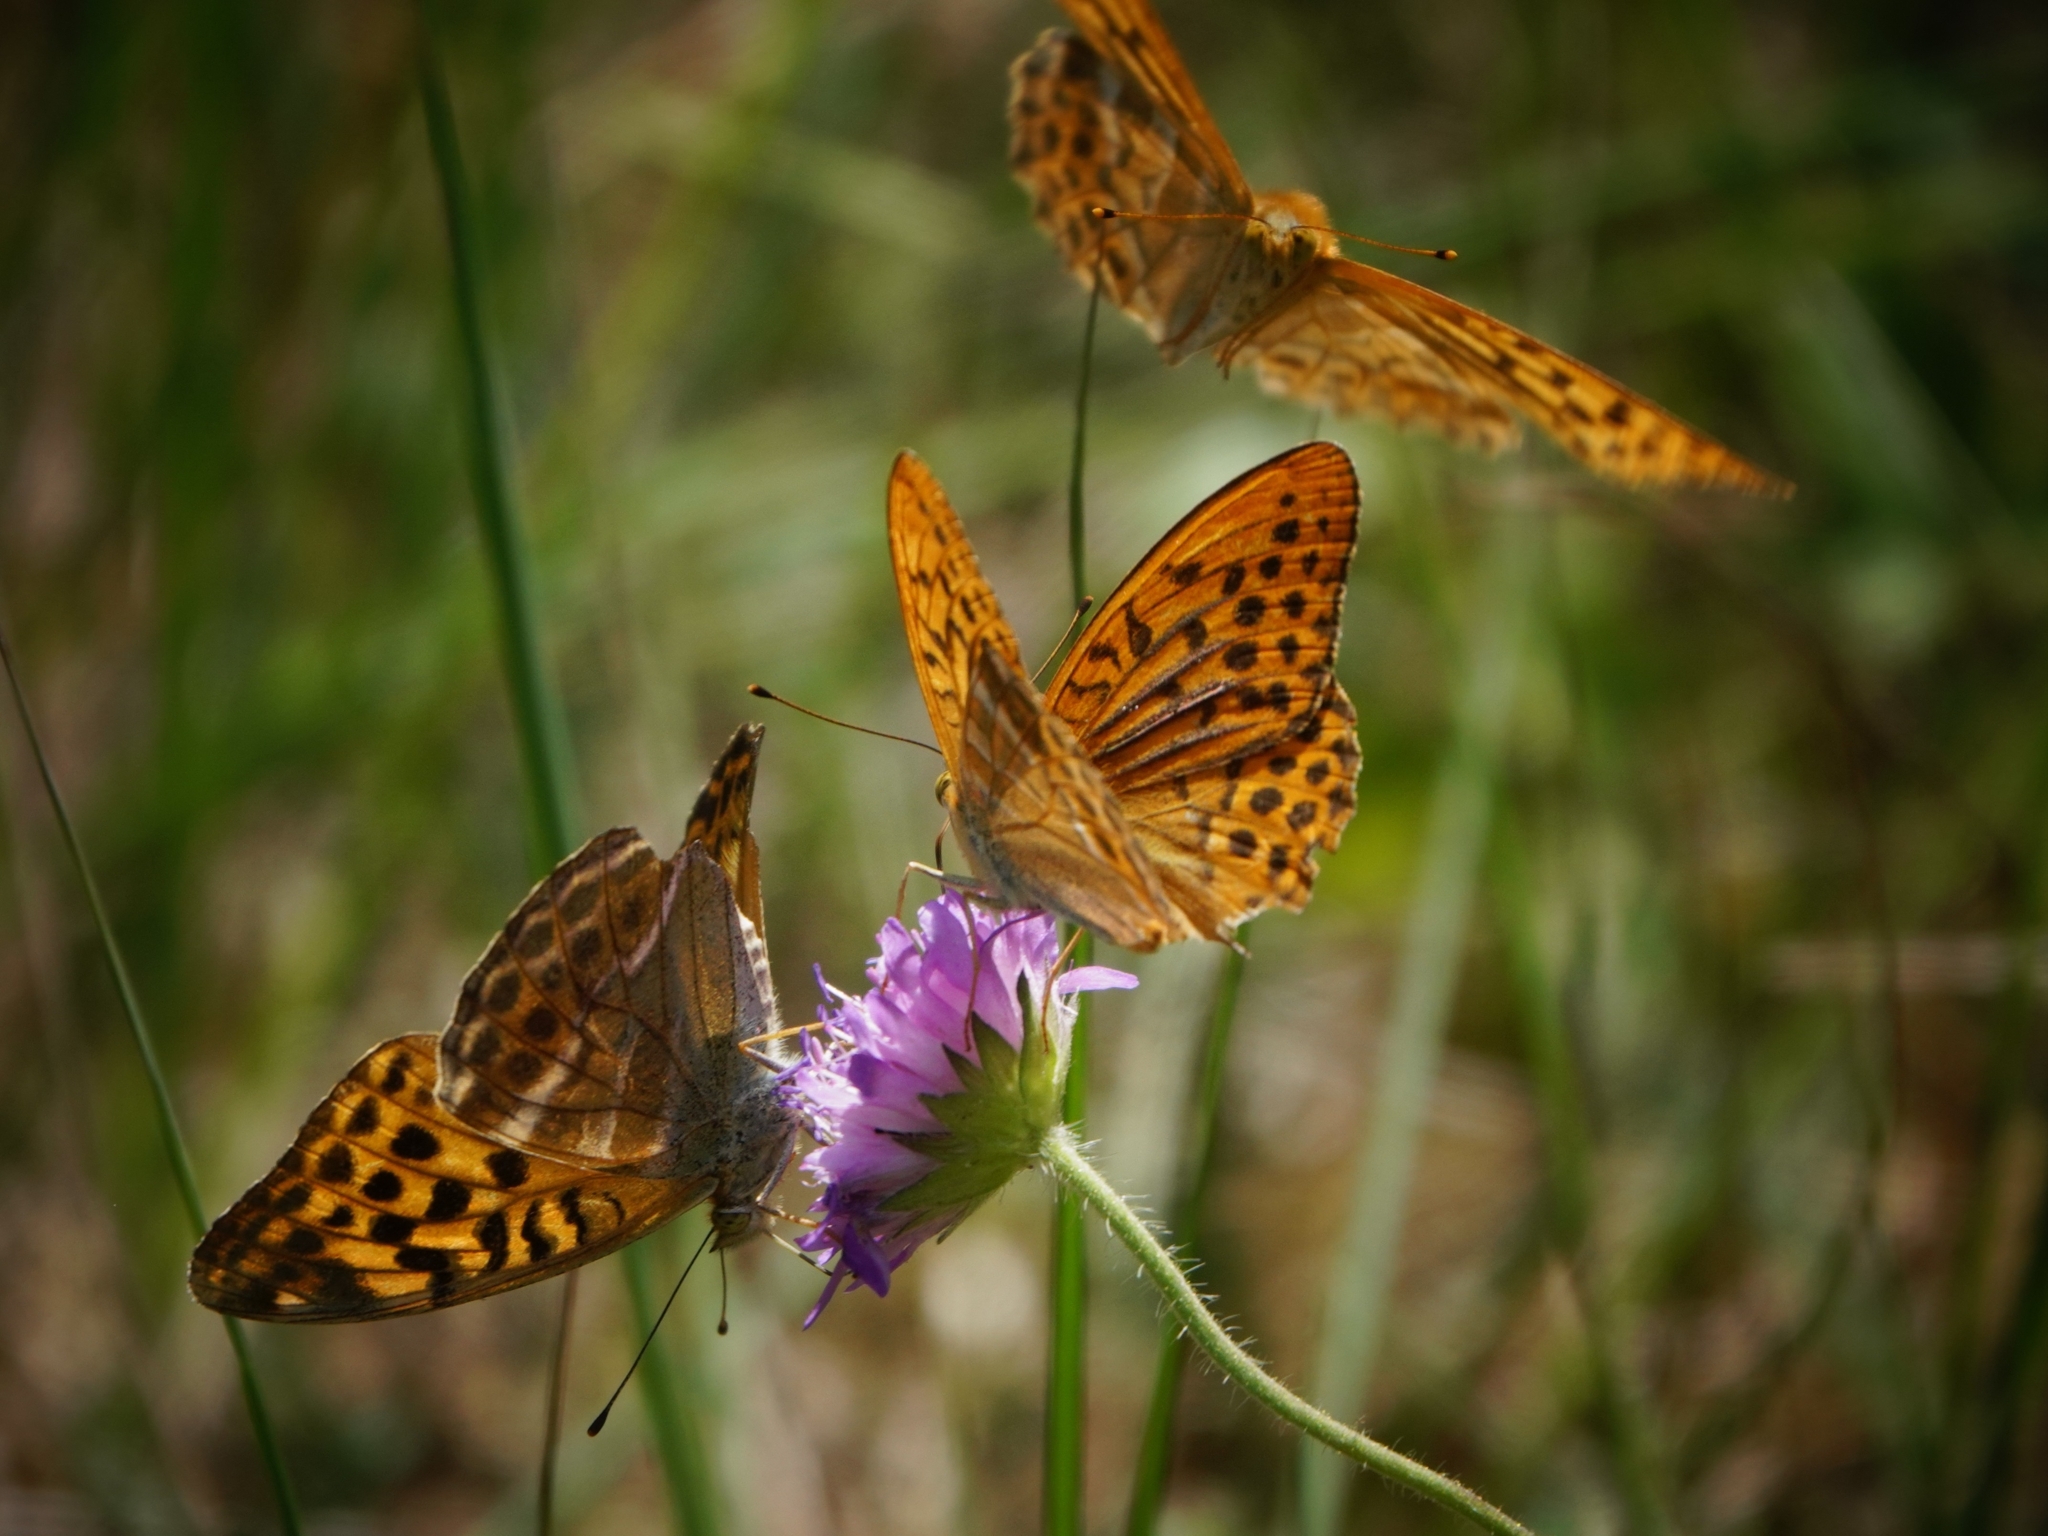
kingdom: Animalia
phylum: Arthropoda
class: Insecta
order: Lepidoptera
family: Nymphalidae
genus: Argynnis
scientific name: Argynnis paphia
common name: Silver-washed fritillary
